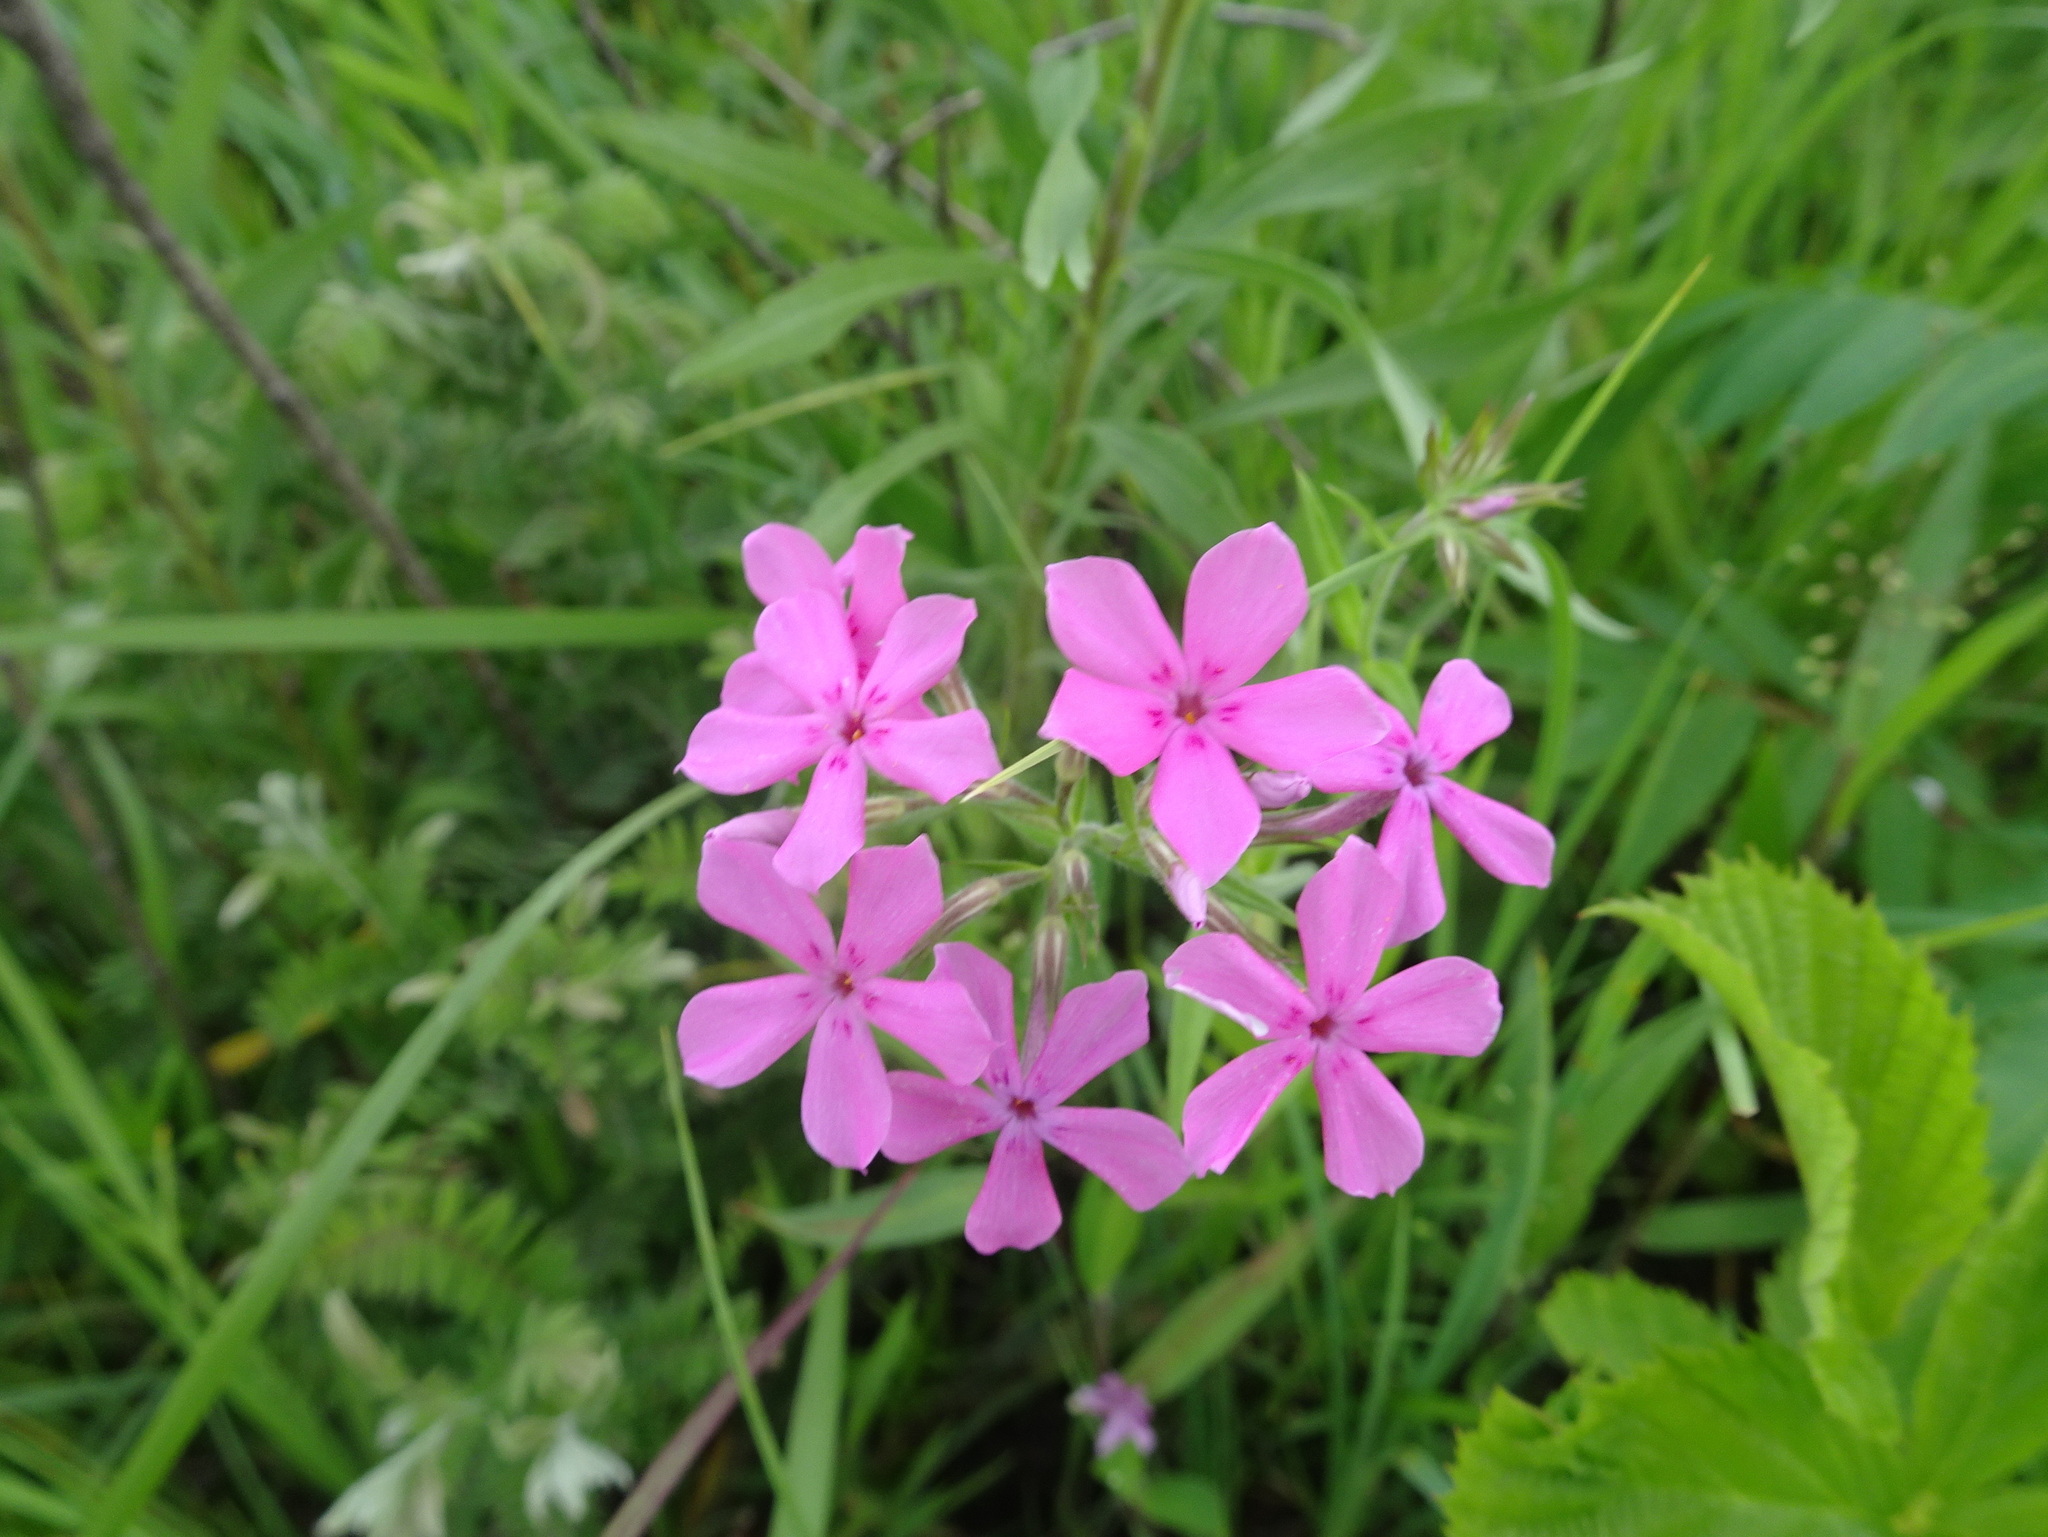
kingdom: Plantae
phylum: Tracheophyta
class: Magnoliopsida
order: Ericales
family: Polemoniaceae
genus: Phlox
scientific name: Phlox pilosa
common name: Prairie phlox
